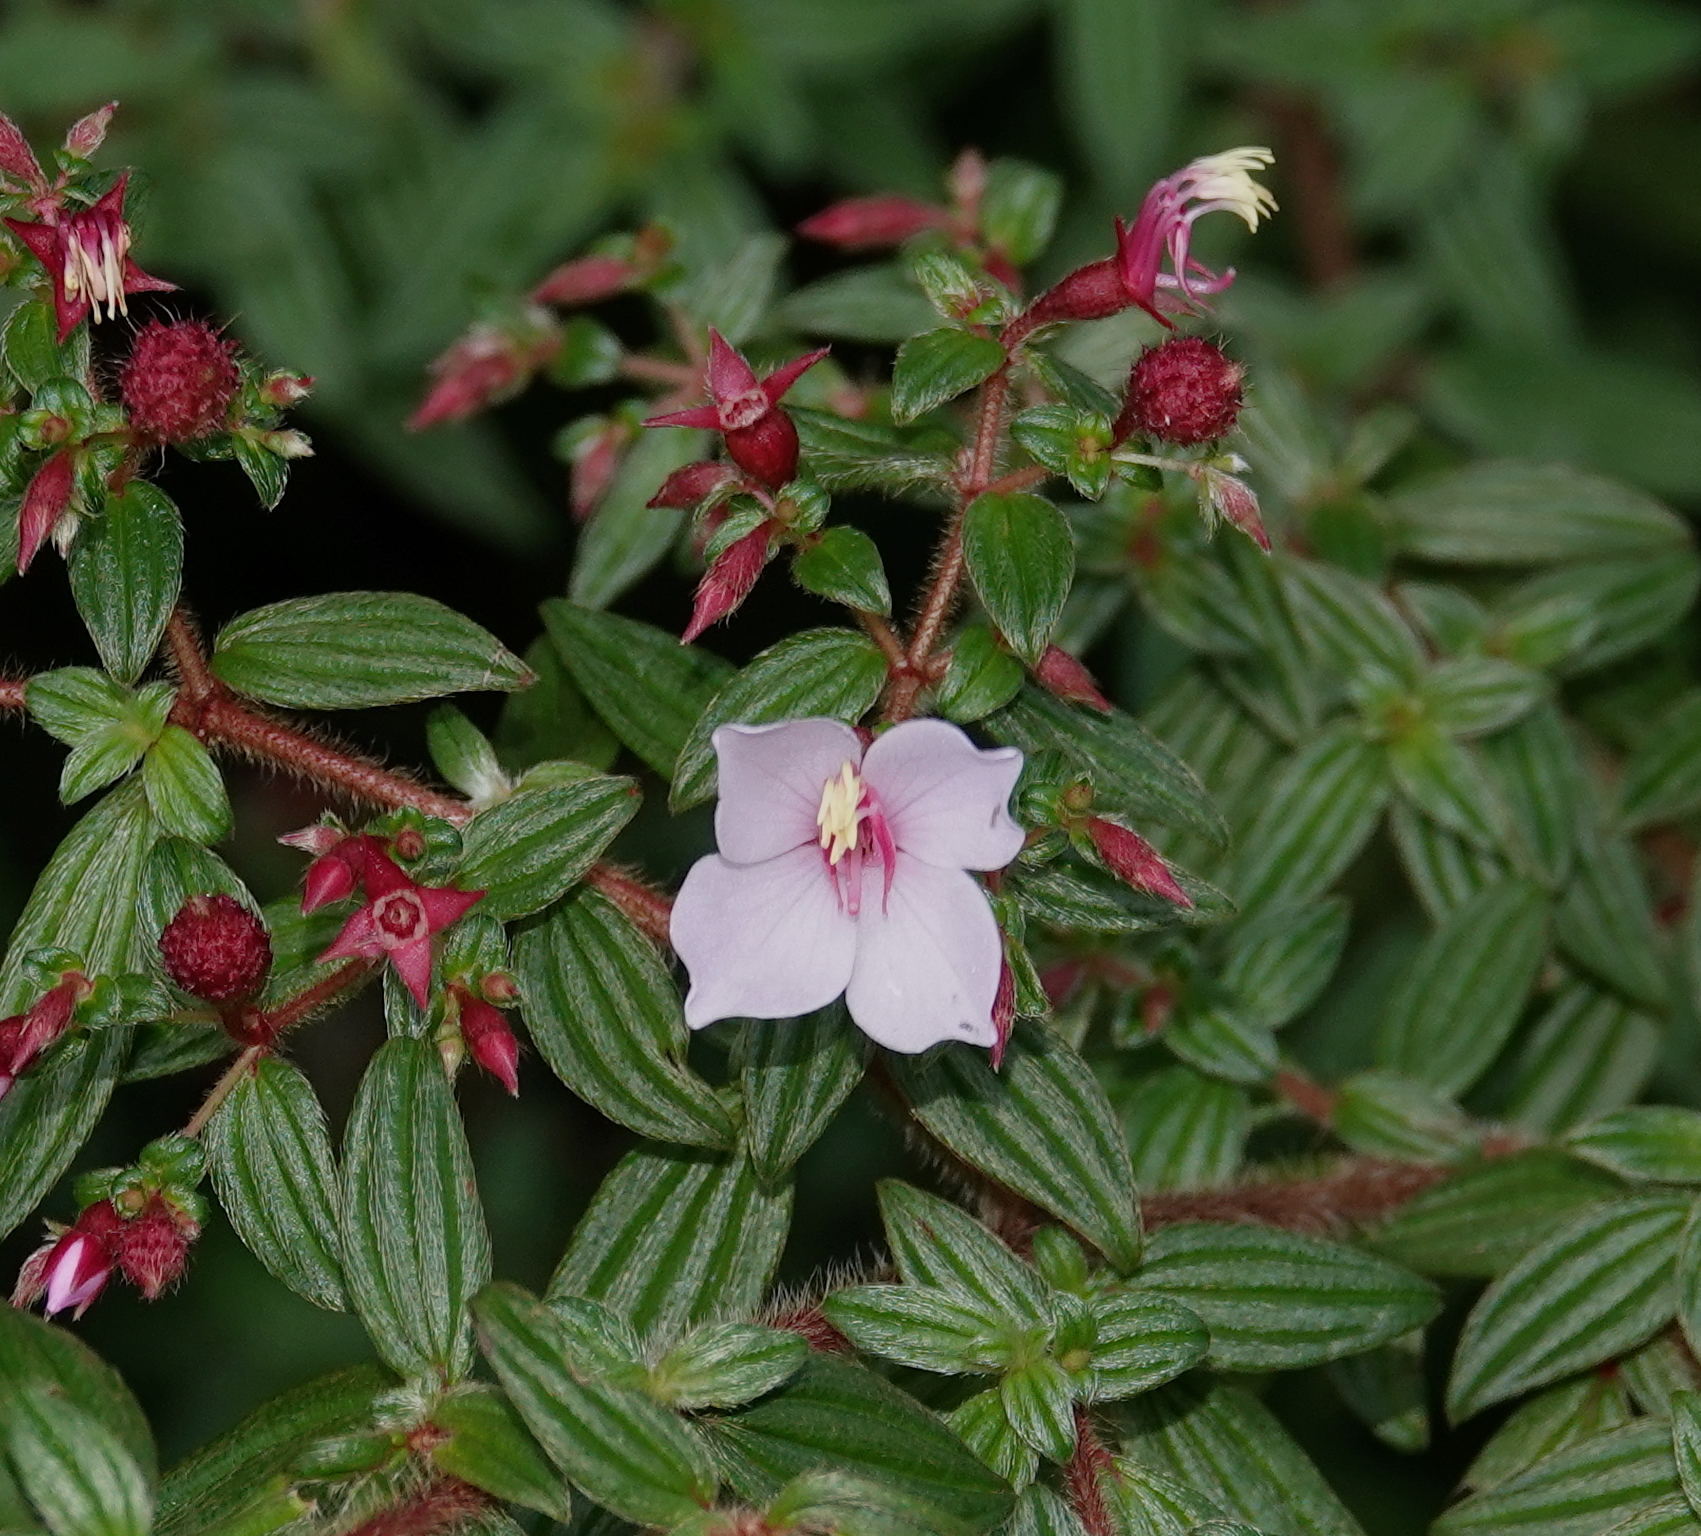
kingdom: Plantae
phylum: Tracheophyta
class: Magnoliopsida
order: Myrtales
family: Melastomataceae
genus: Monochaetum
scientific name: Monochaetum floribundum
